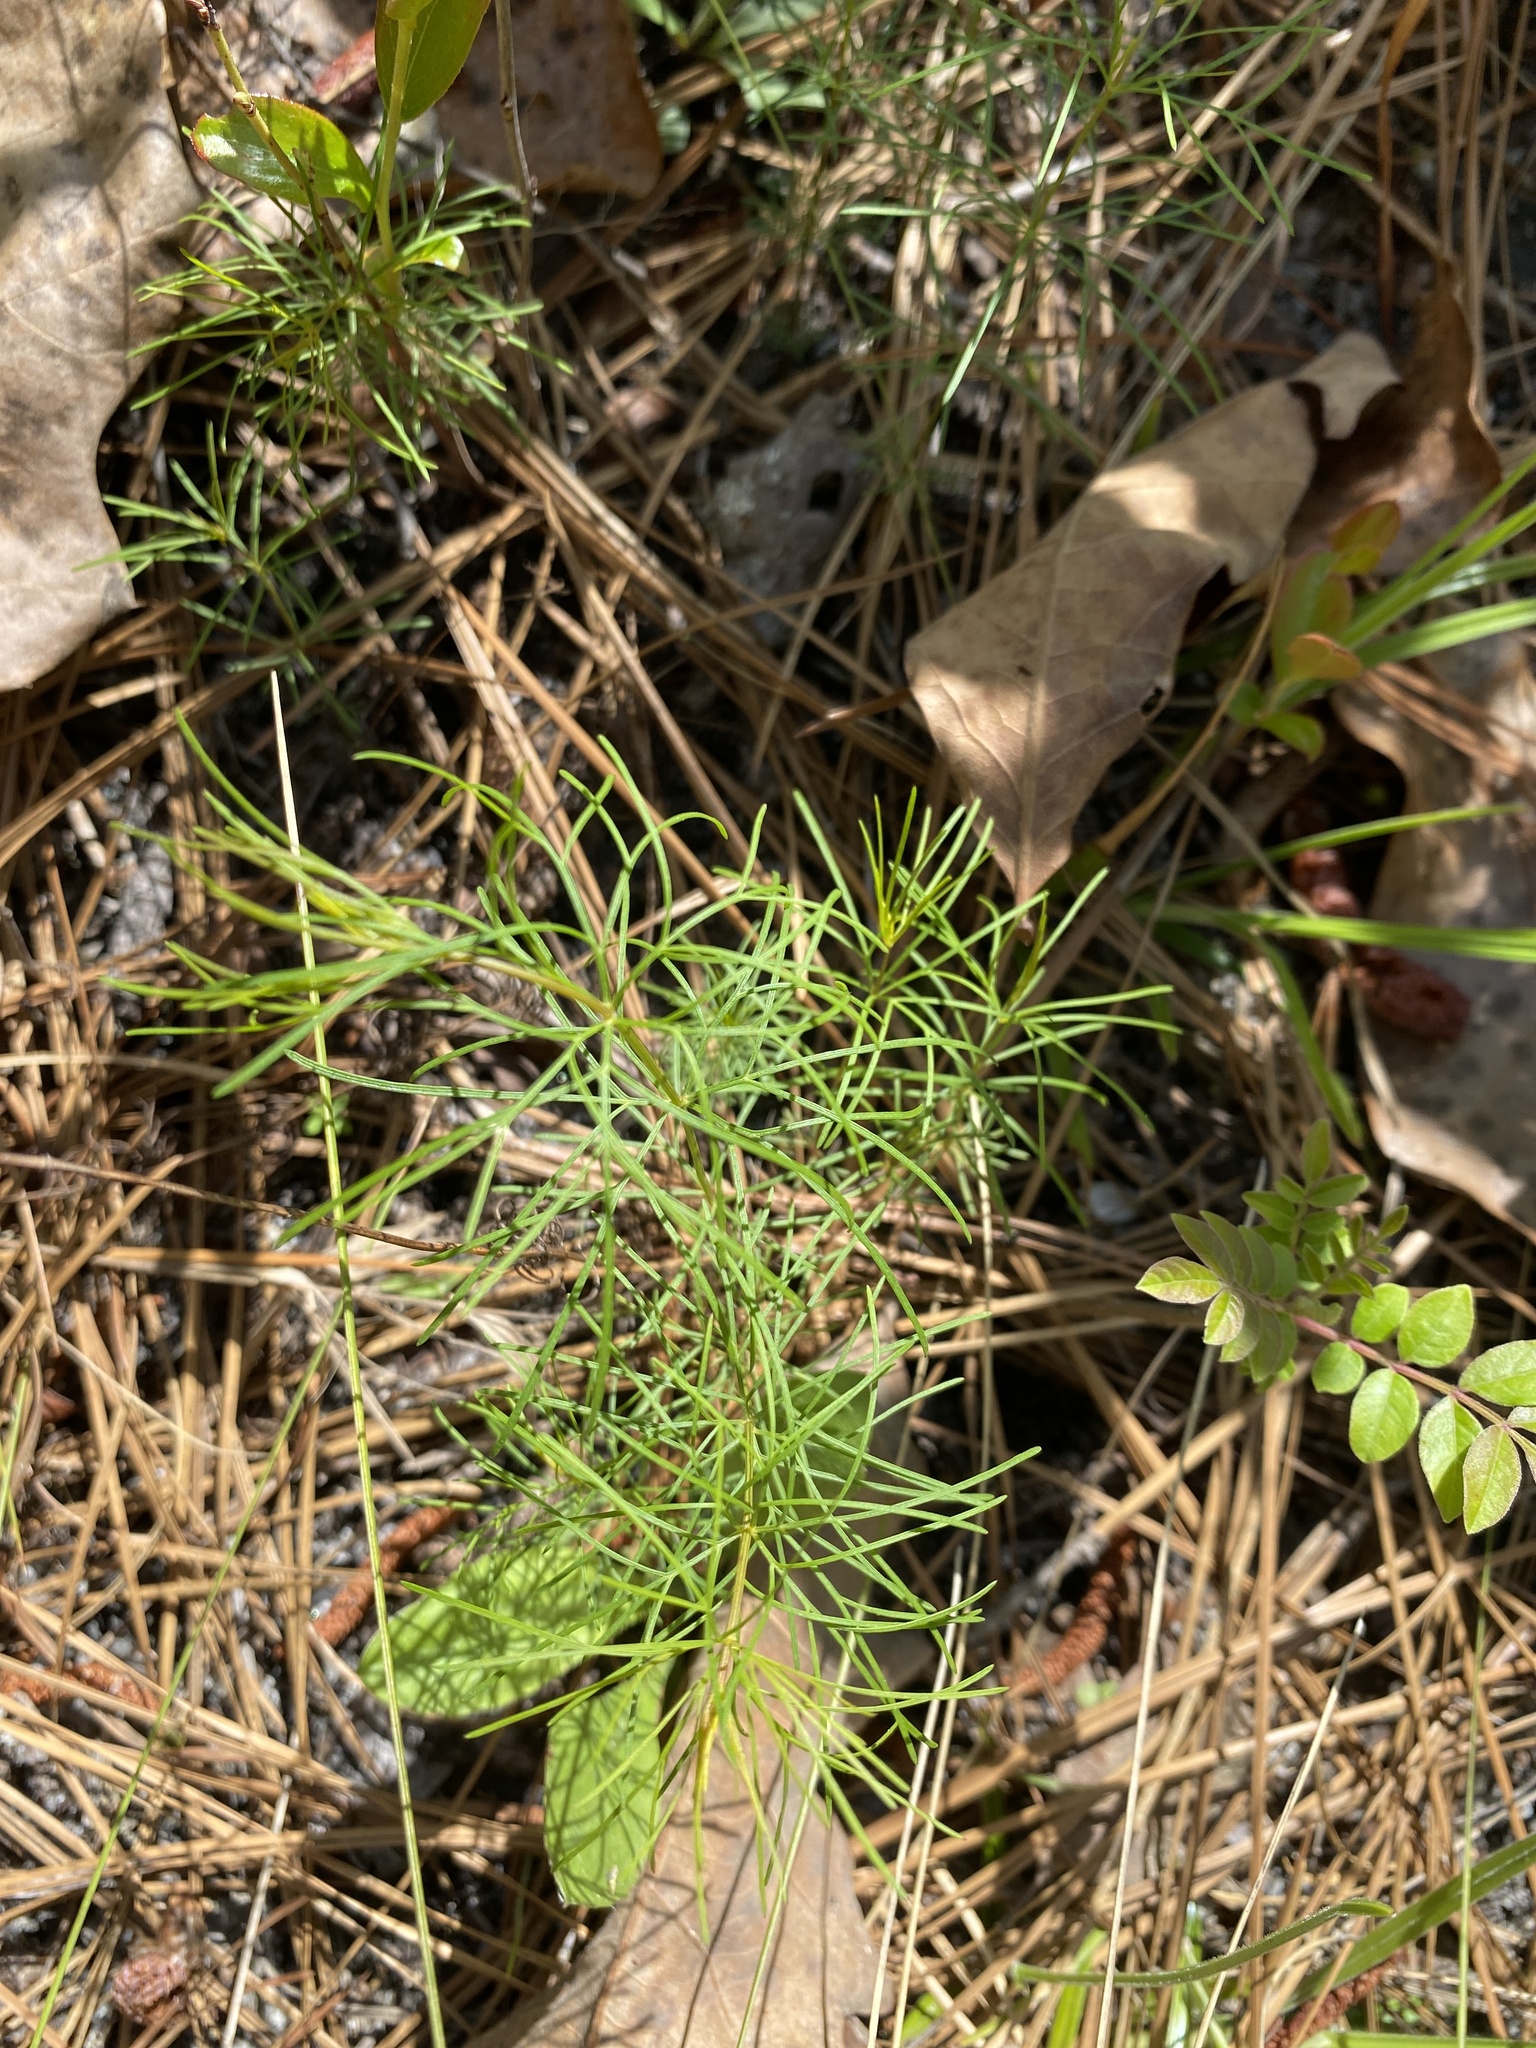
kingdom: Plantae
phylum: Tracheophyta
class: Magnoliopsida
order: Asterales
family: Asteraceae
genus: Coreopsis
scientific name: Coreopsis verticillata
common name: Whorled tickseed
